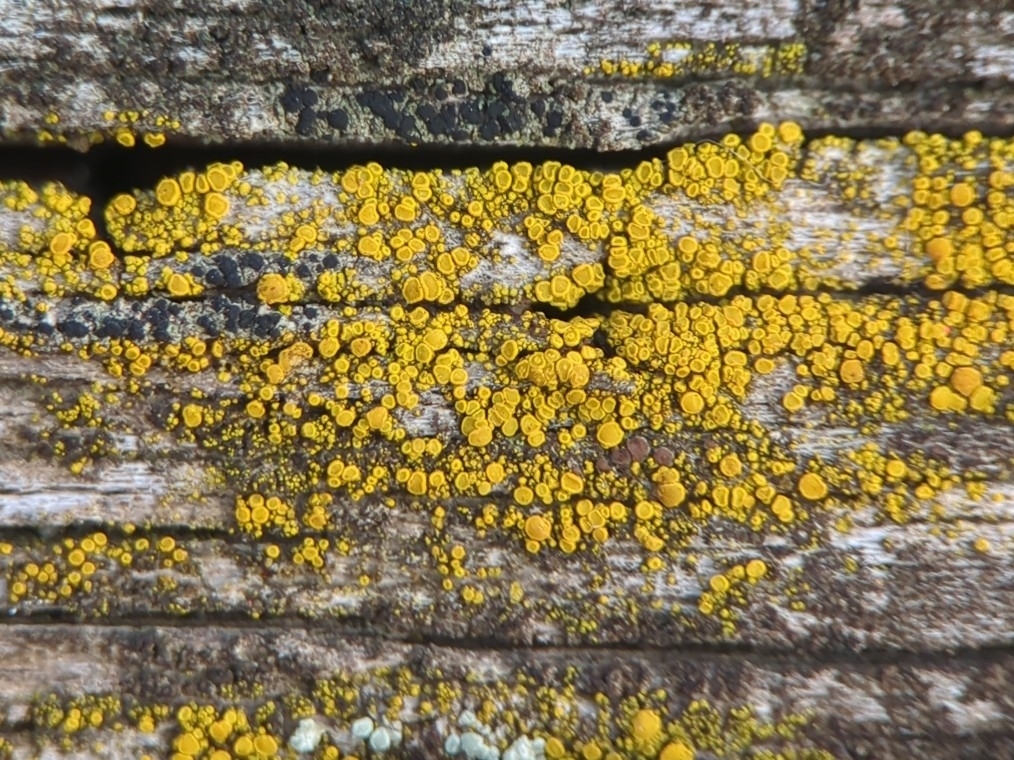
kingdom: Fungi
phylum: Ascomycota
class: Candelariomycetes
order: Candelariales
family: Candelariaceae
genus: Candelariella
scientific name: Candelariella vitellina
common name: Common goldspeck
